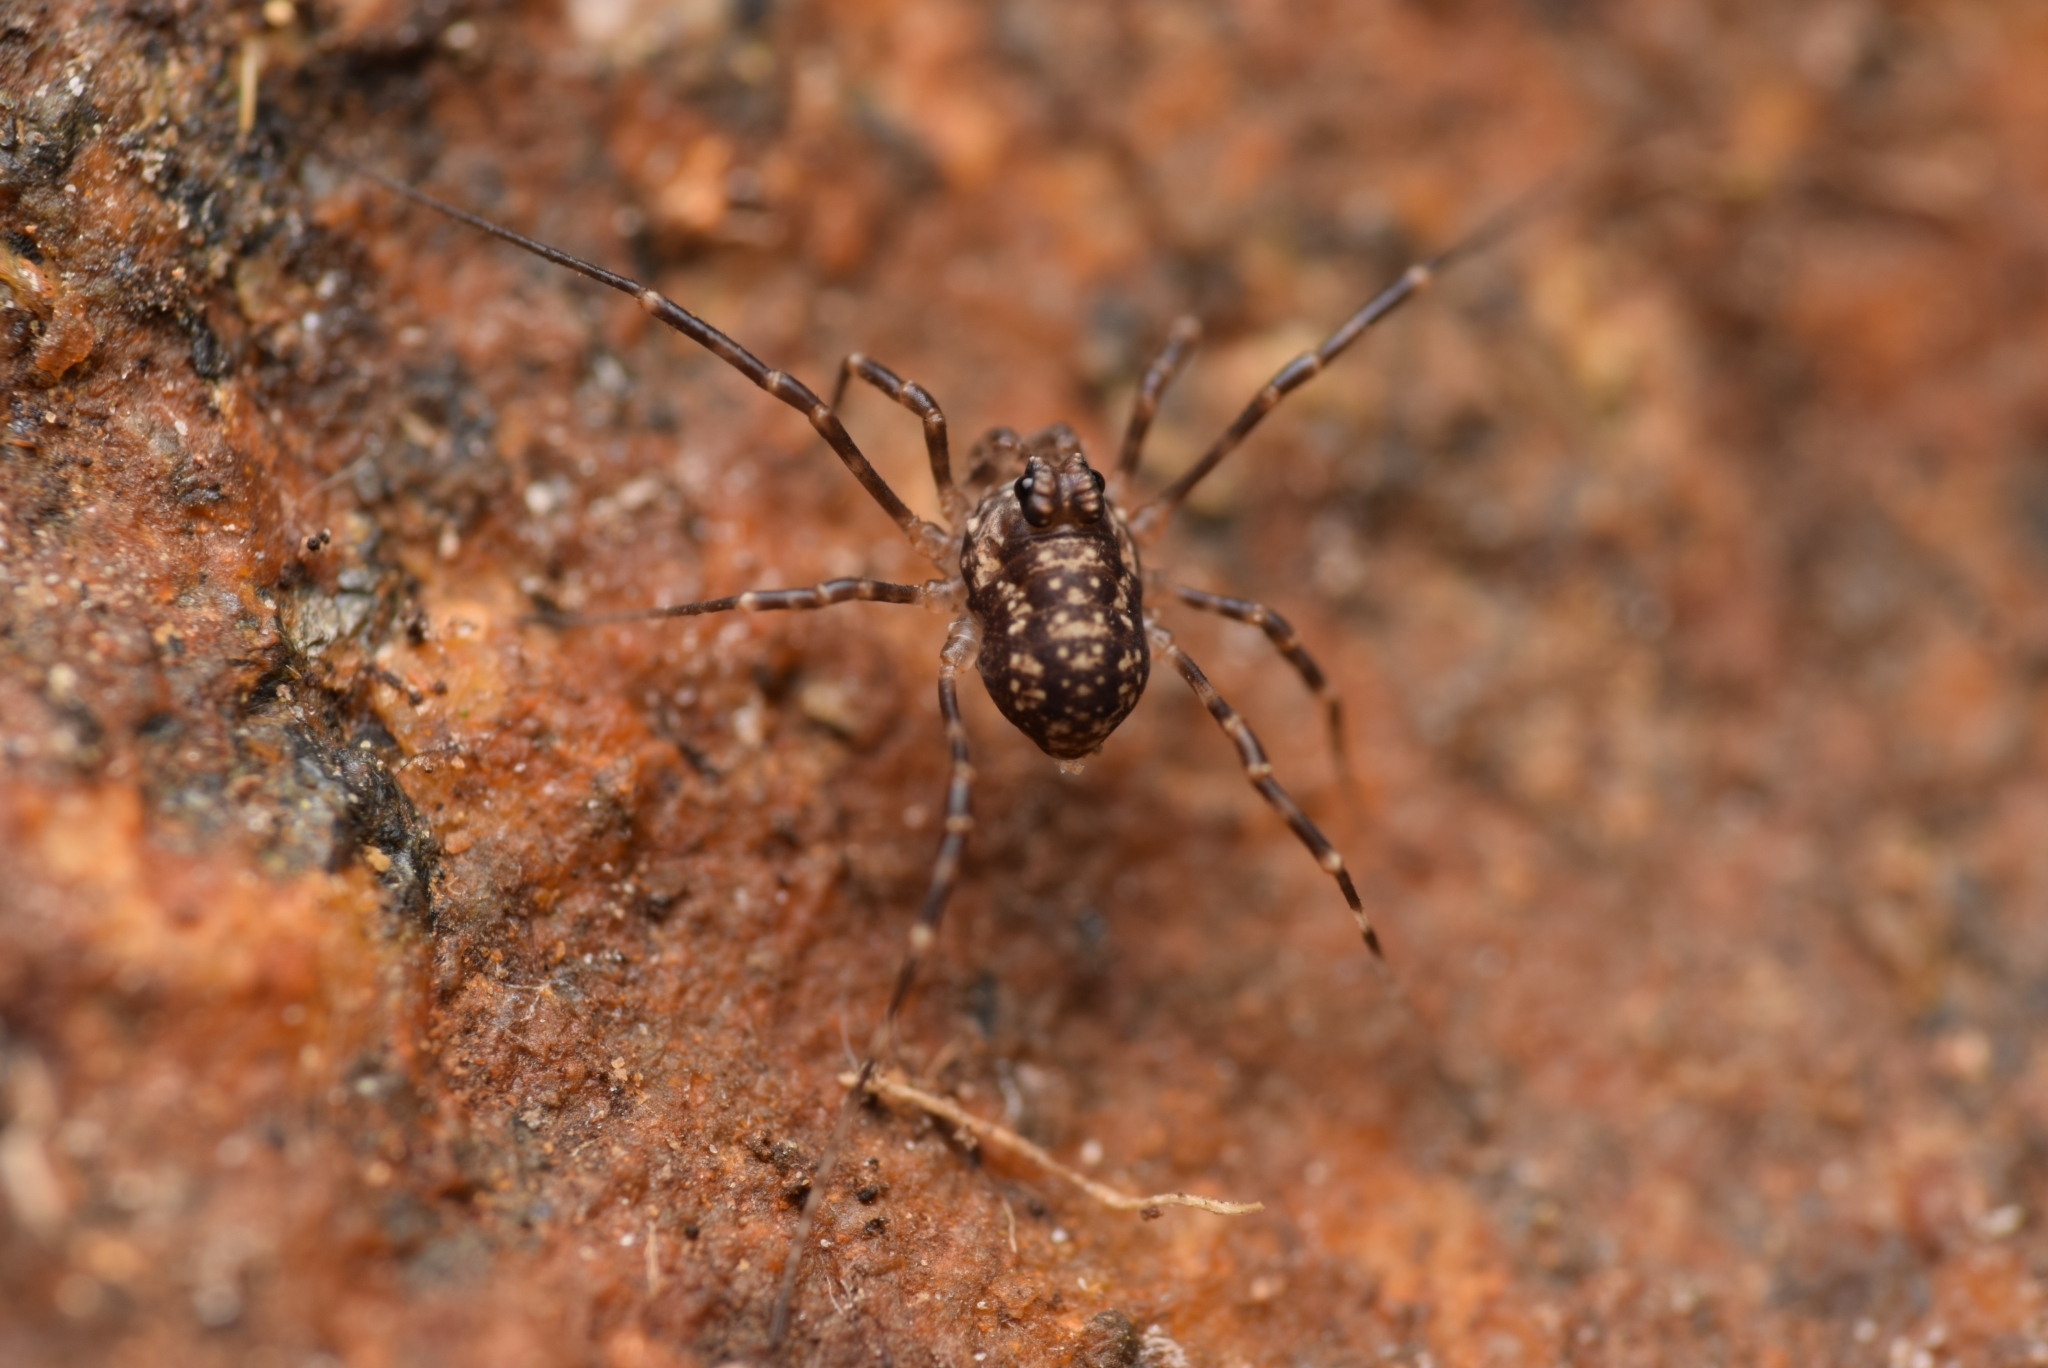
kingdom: Animalia
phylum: Arthropoda
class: Arachnida
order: Opiliones
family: Phalangiidae
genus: Rilaena
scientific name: Rilaena triangularis
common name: Spring harvestman
